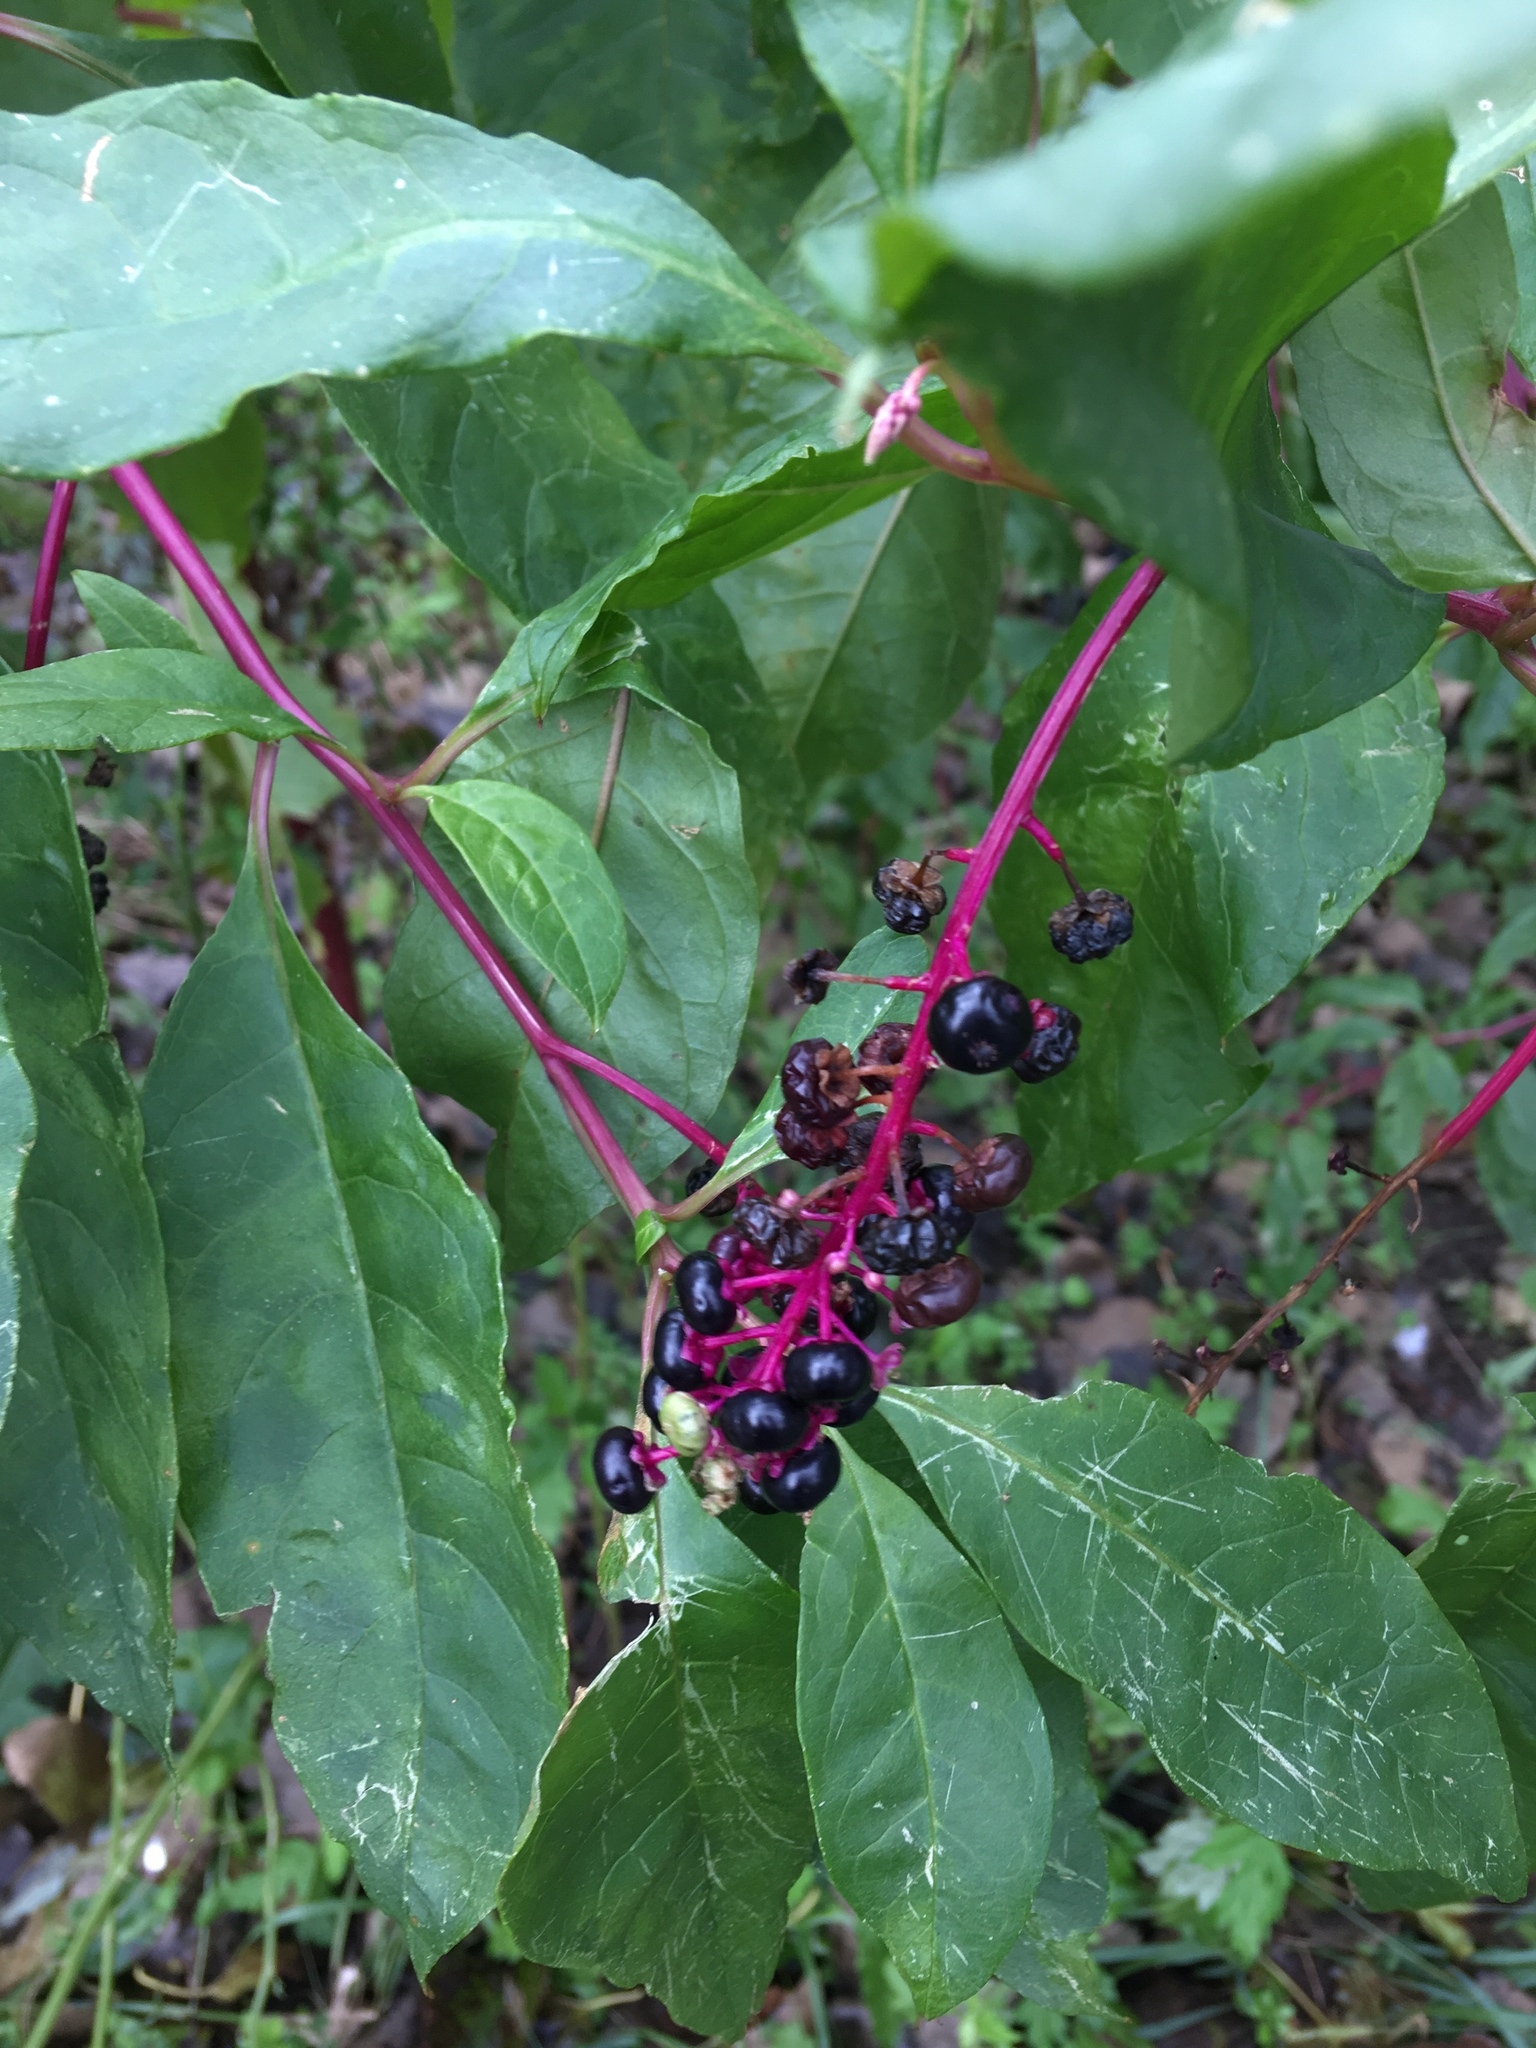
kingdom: Plantae
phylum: Tracheophyta
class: Magnoliopsida
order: Caryophyllales
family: Phytolaccaceae
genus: Phytolacca
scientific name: Phytolacca americana
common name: American pokeweed
